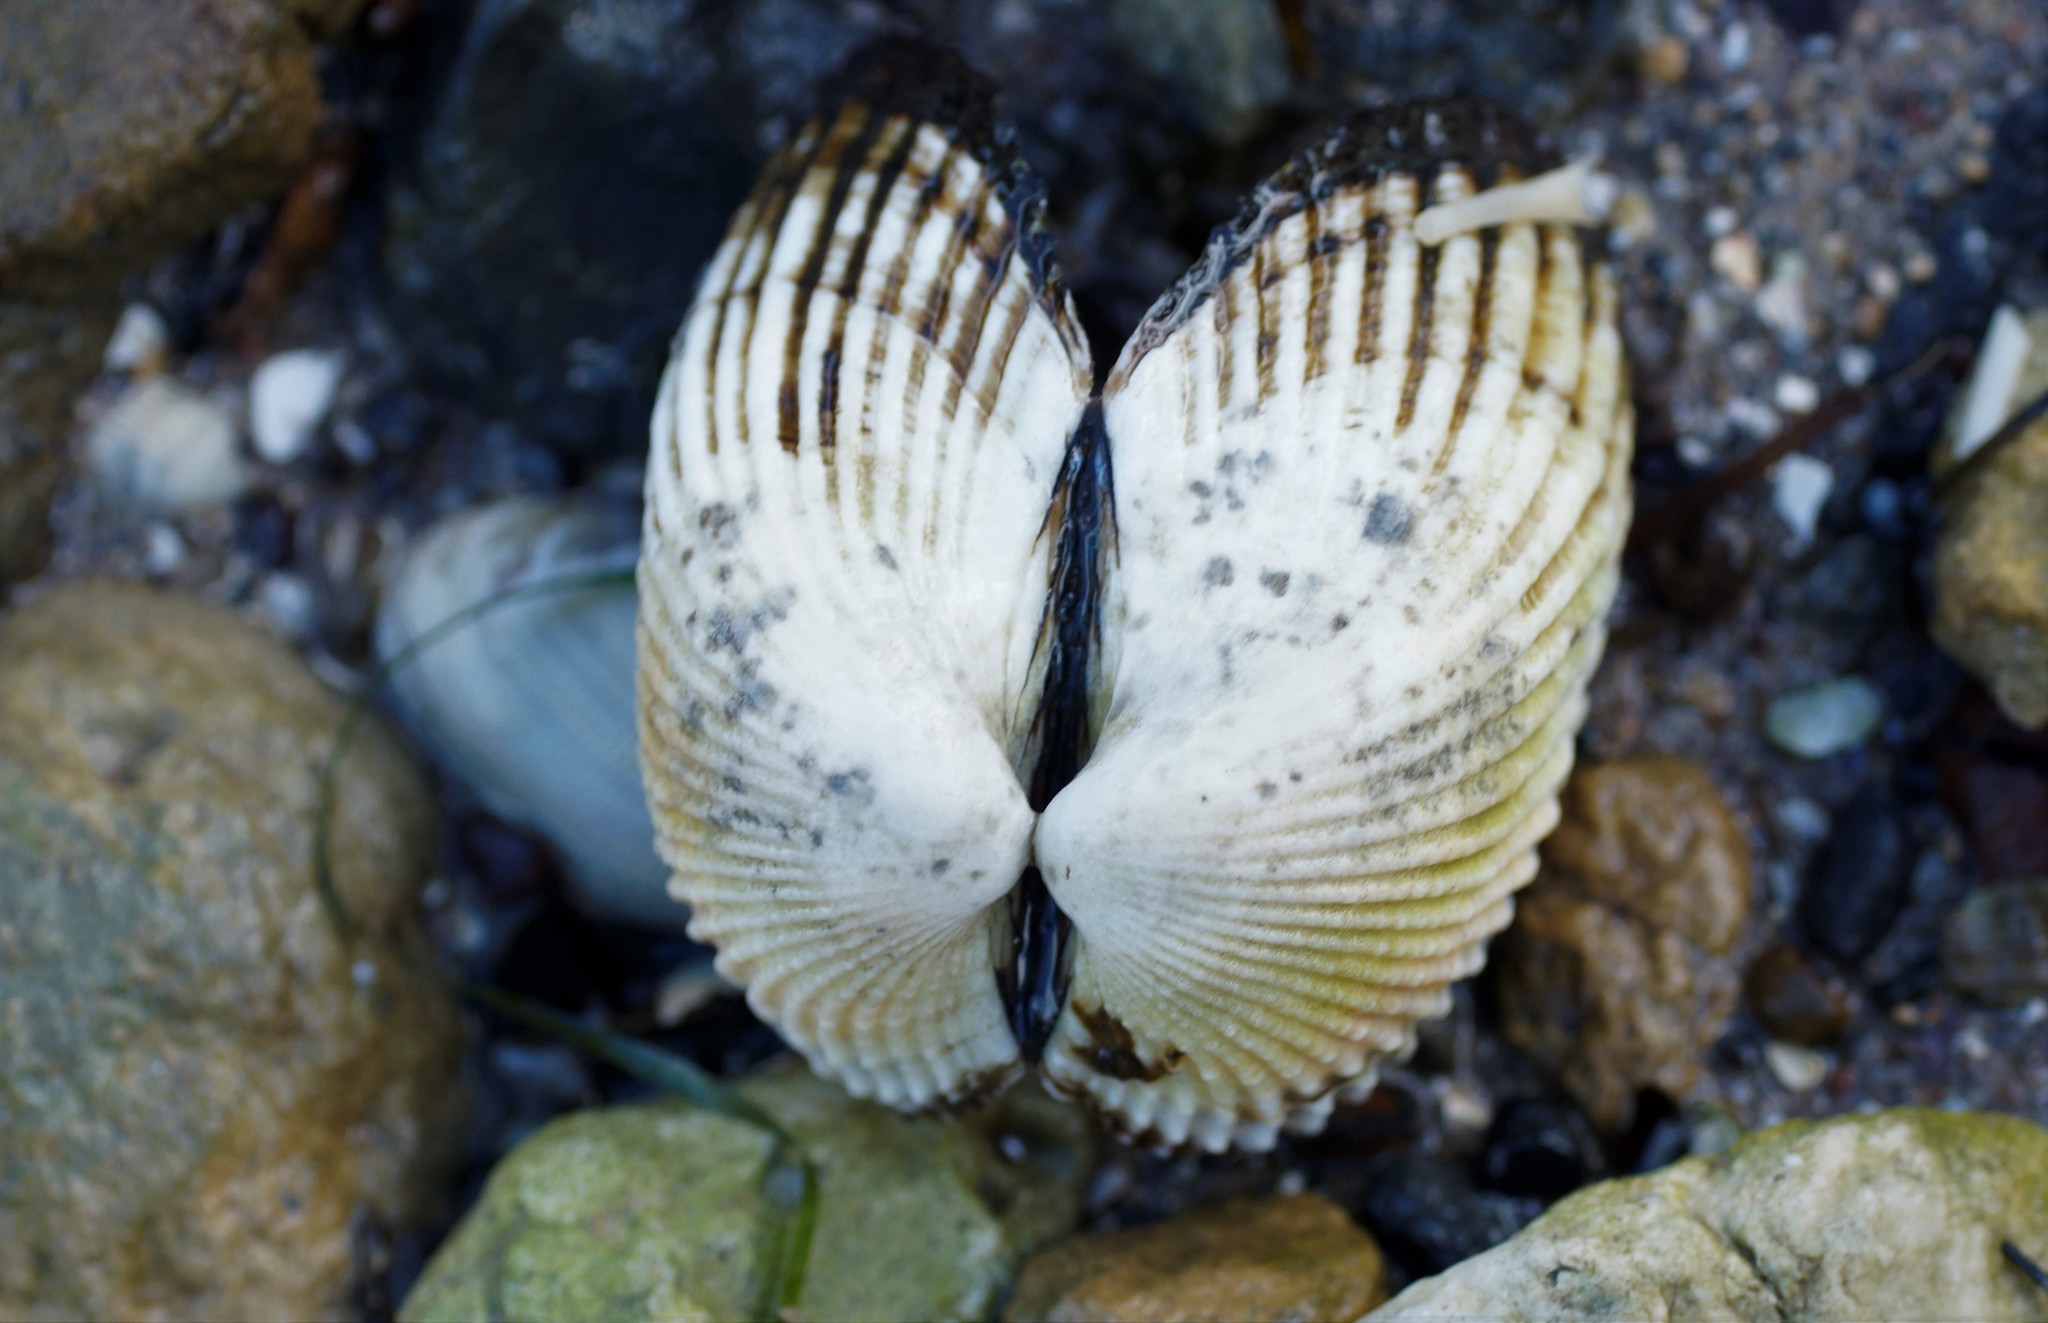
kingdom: Animalia
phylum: Mollusca
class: Bivalvia
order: Arcida
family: Arcidae
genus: Anadara
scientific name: Anadara trapezia
